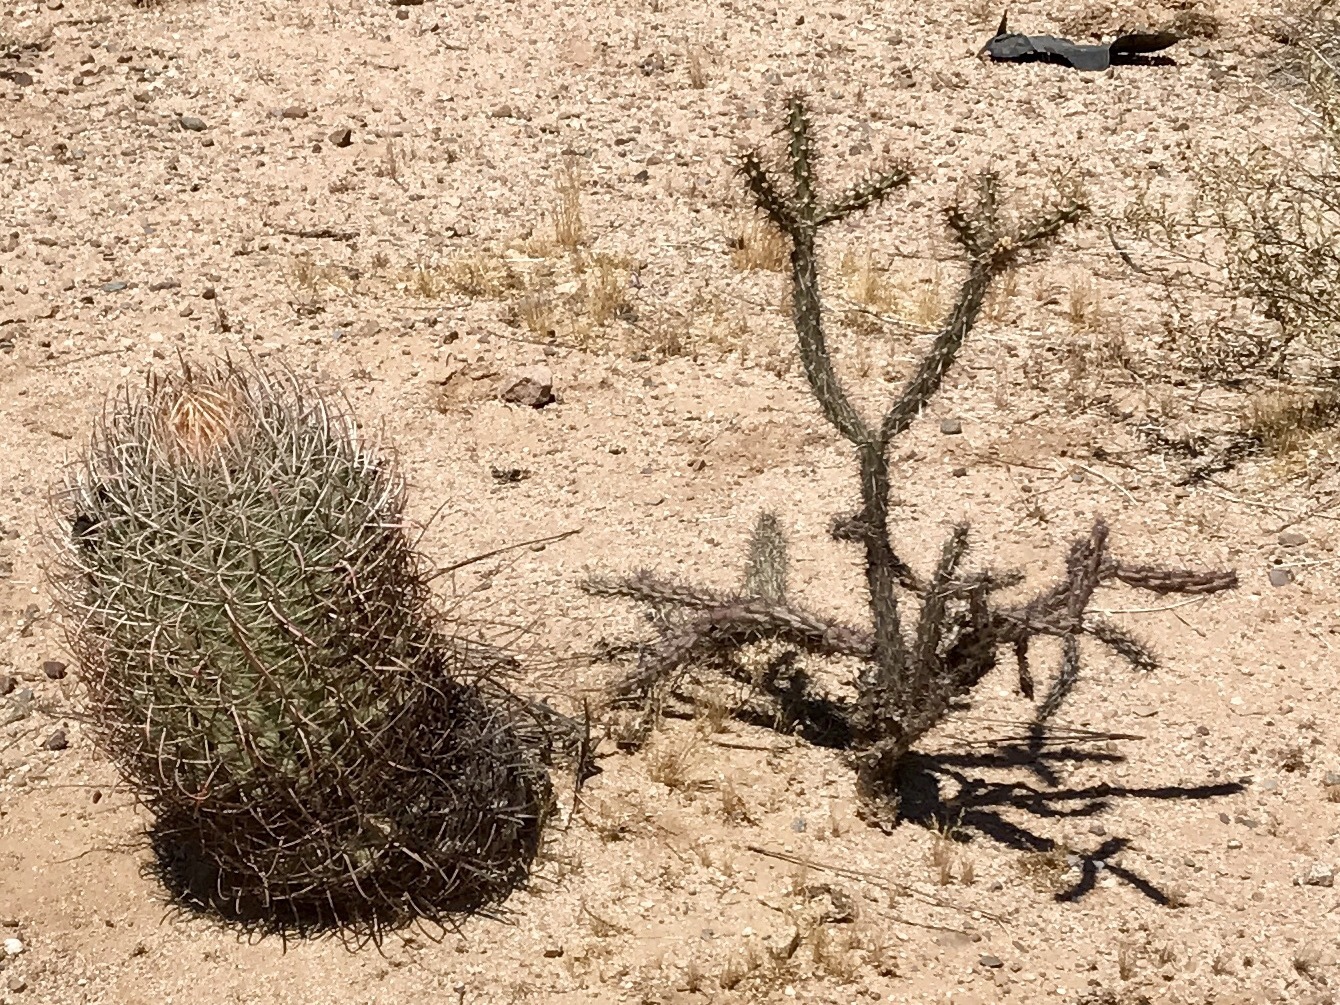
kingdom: Plantae
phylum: Tracheophyta
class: Magnoliopsida
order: Caryophyllales
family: Cactaceae
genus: Ferocactus
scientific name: Ferocactus wislizeni
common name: Candy barrel cactus
